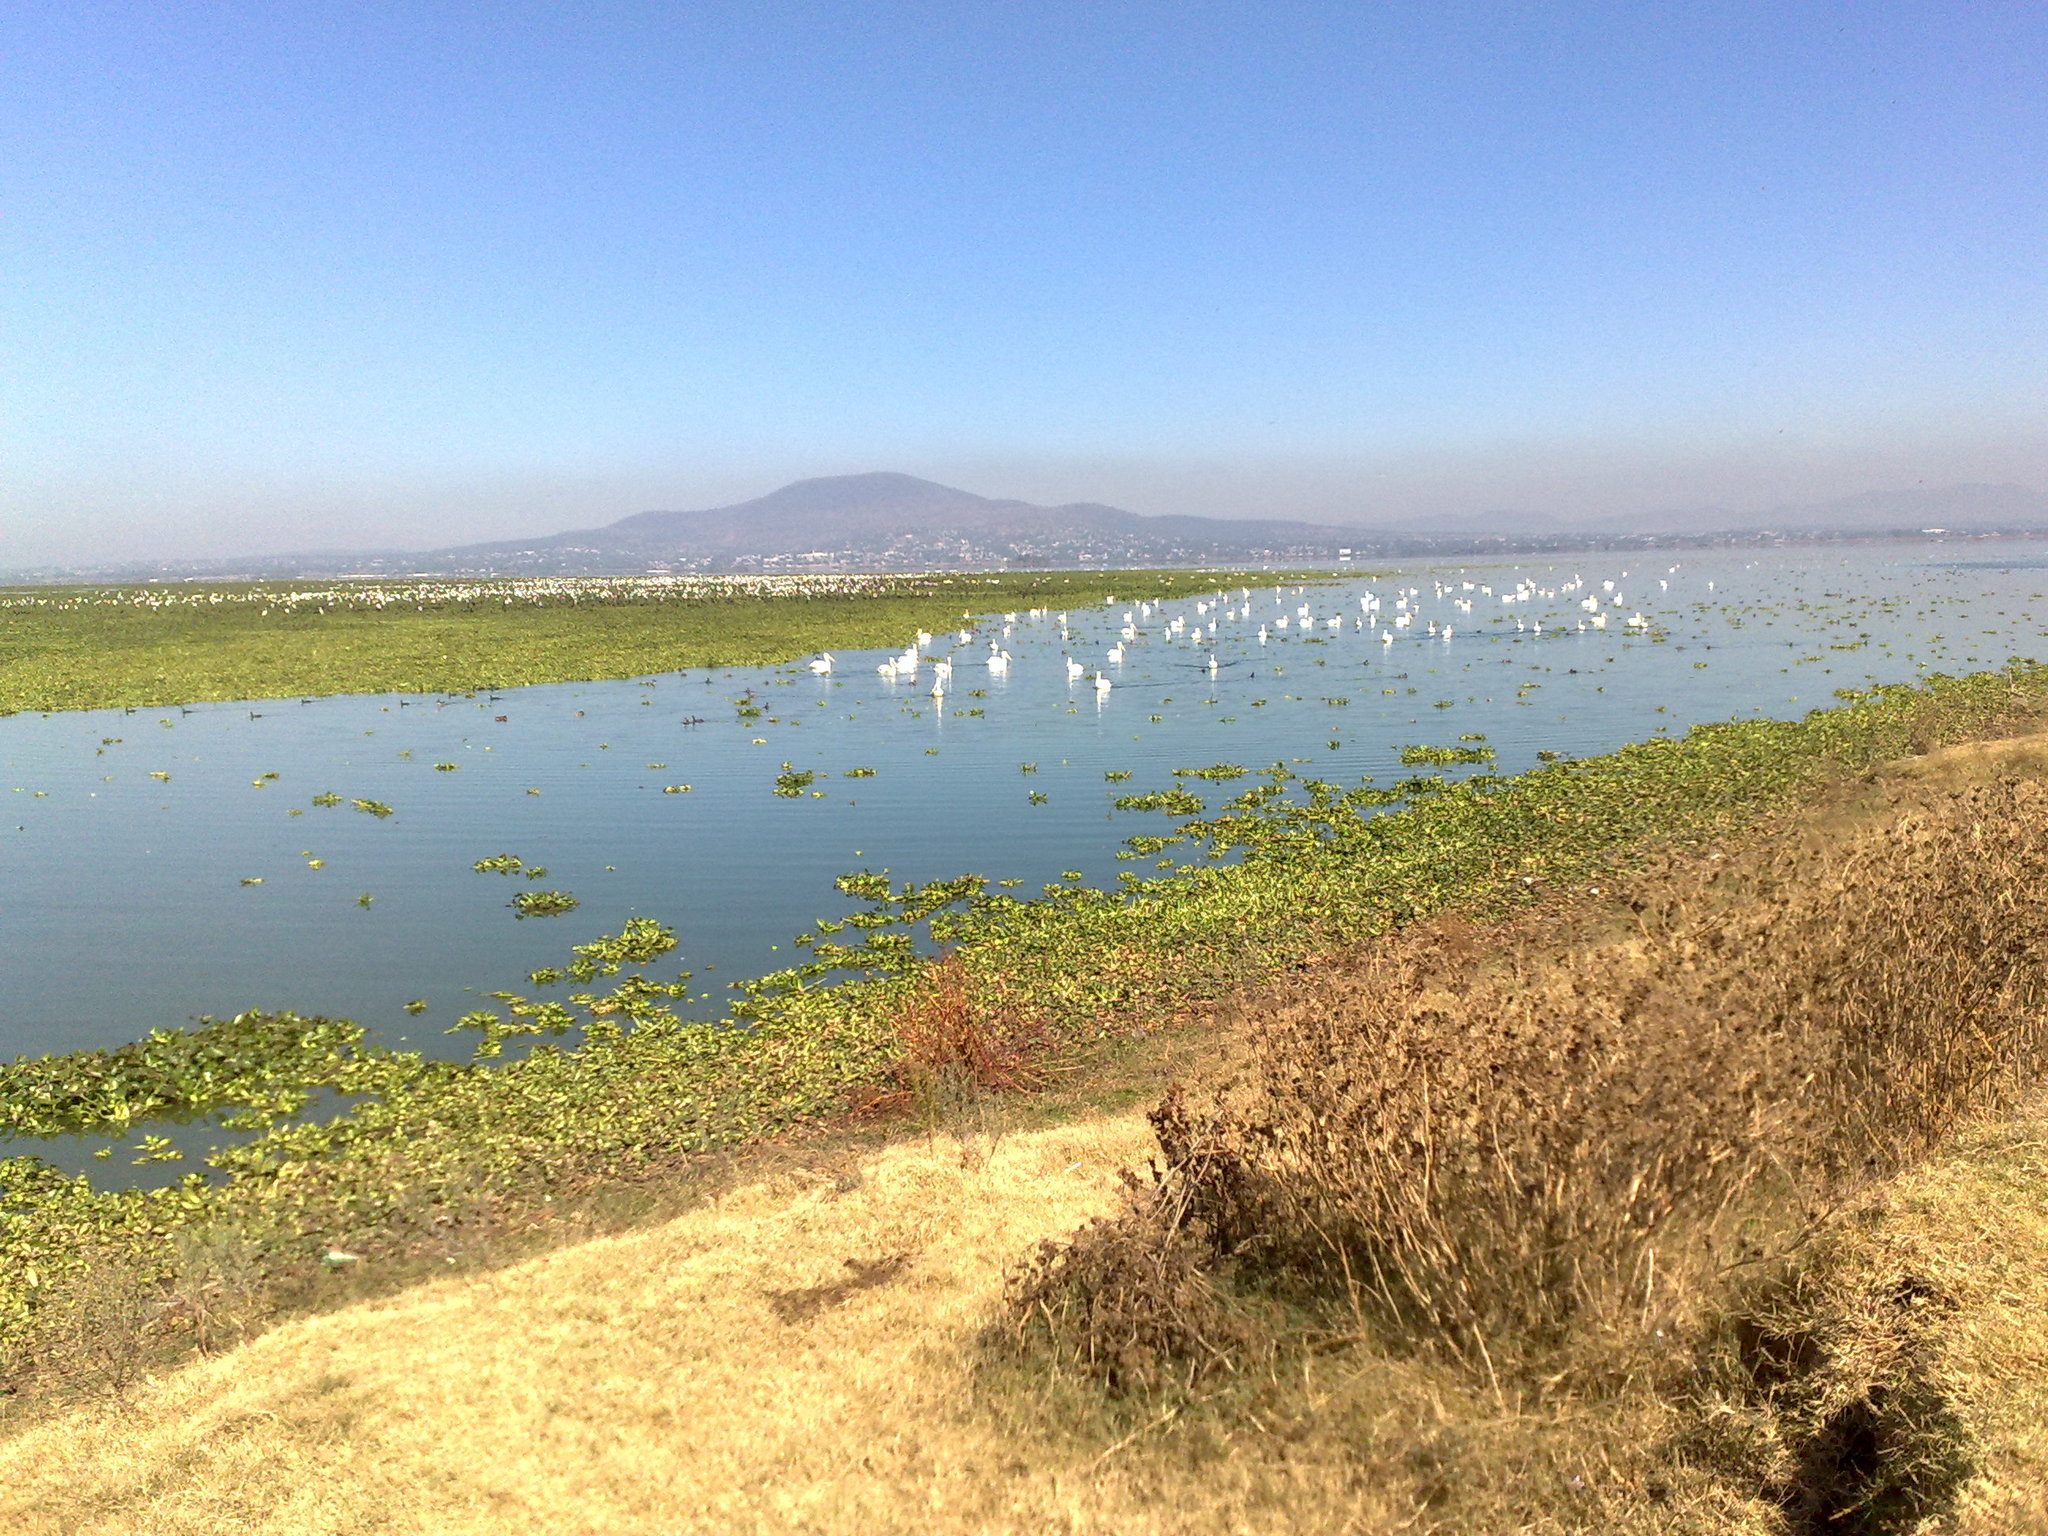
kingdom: Animalia
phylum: Chordata
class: Aves
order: Pelecaniformes
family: Pelecanidae
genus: Pelecanus
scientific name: Pelecanus erythrorhynchos
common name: American white pelican
